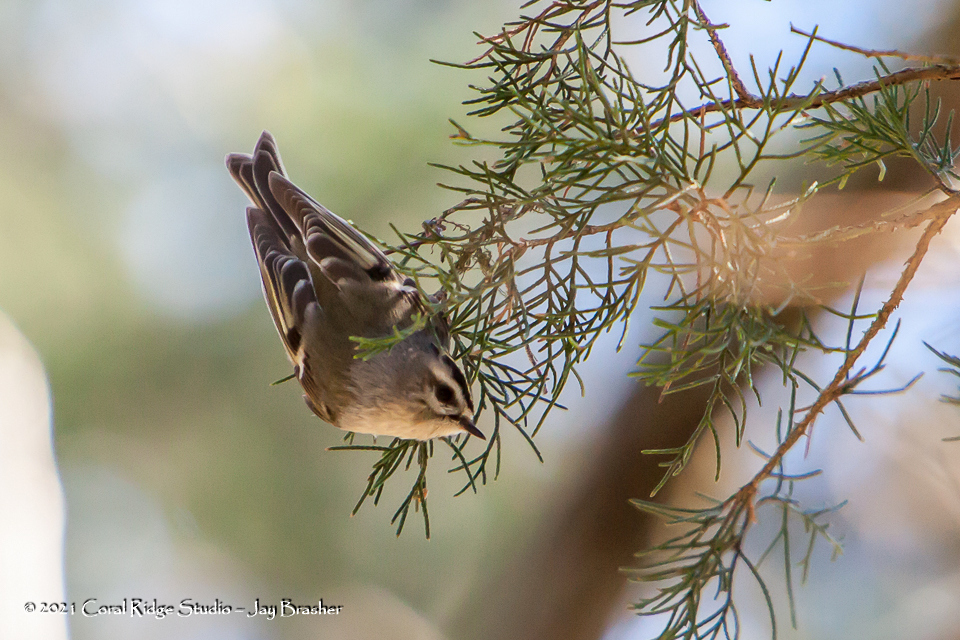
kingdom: Animalia
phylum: Chordata
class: Aves
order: Passeriformes
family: Regulidae
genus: Regulus
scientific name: Regulus satrapa
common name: Golden-crowned kinglet
